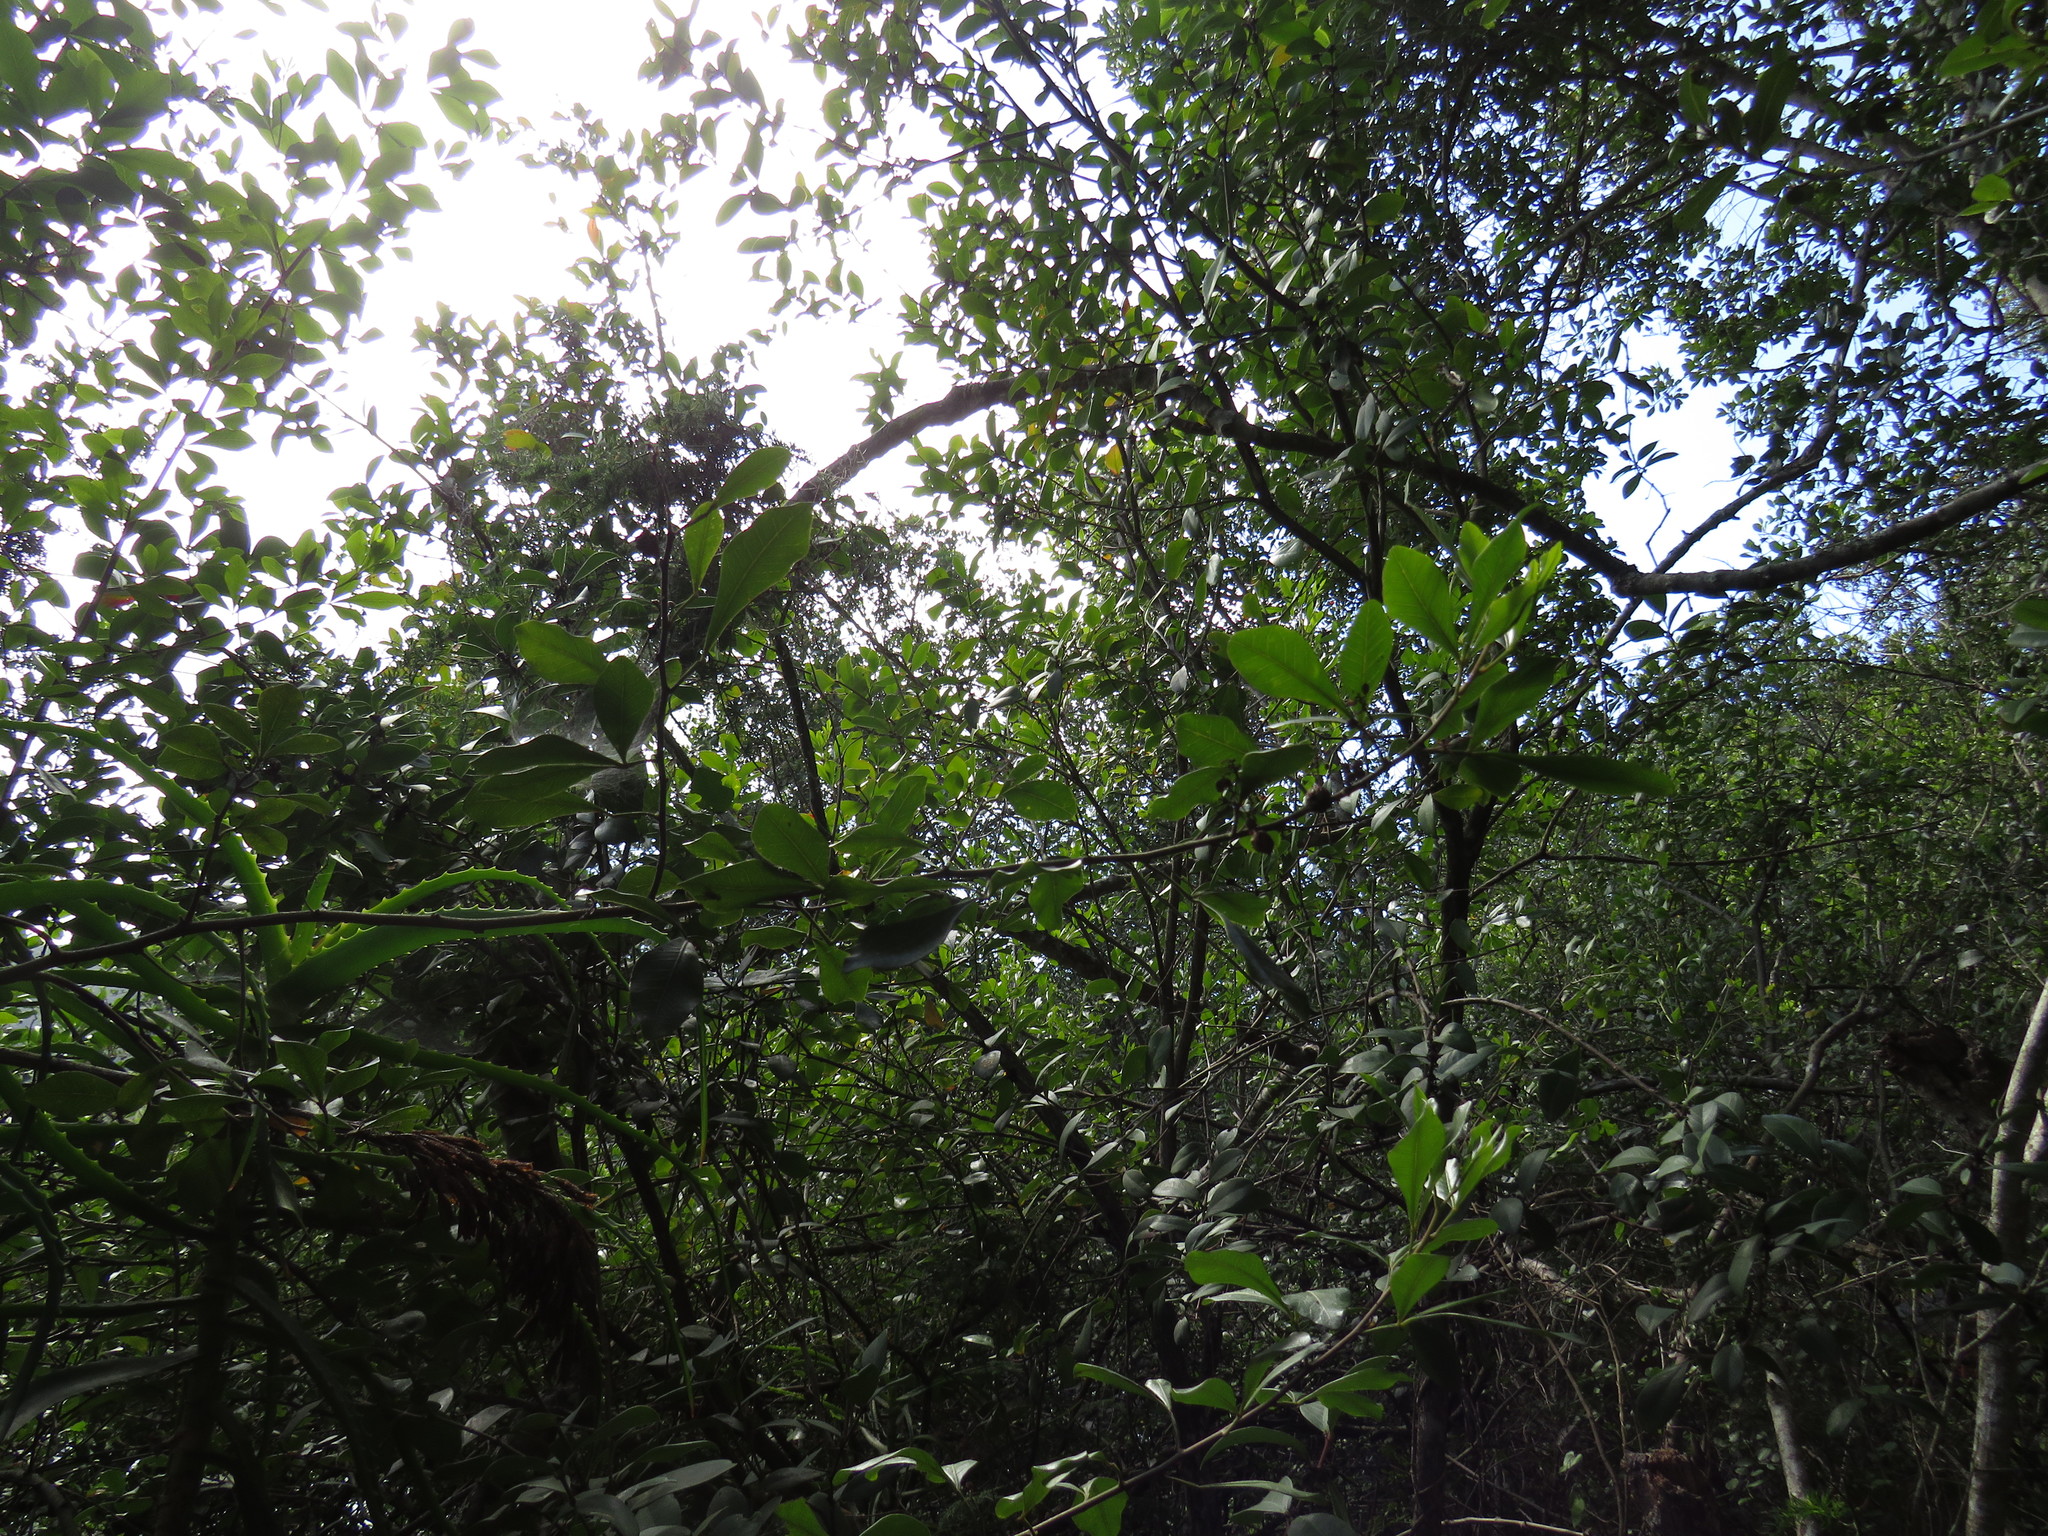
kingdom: Plantae
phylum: Tracheophyta
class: Magnoliopsida
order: Sapindales
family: Anacardiaceae
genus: Searsia
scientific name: Searsia lucida
